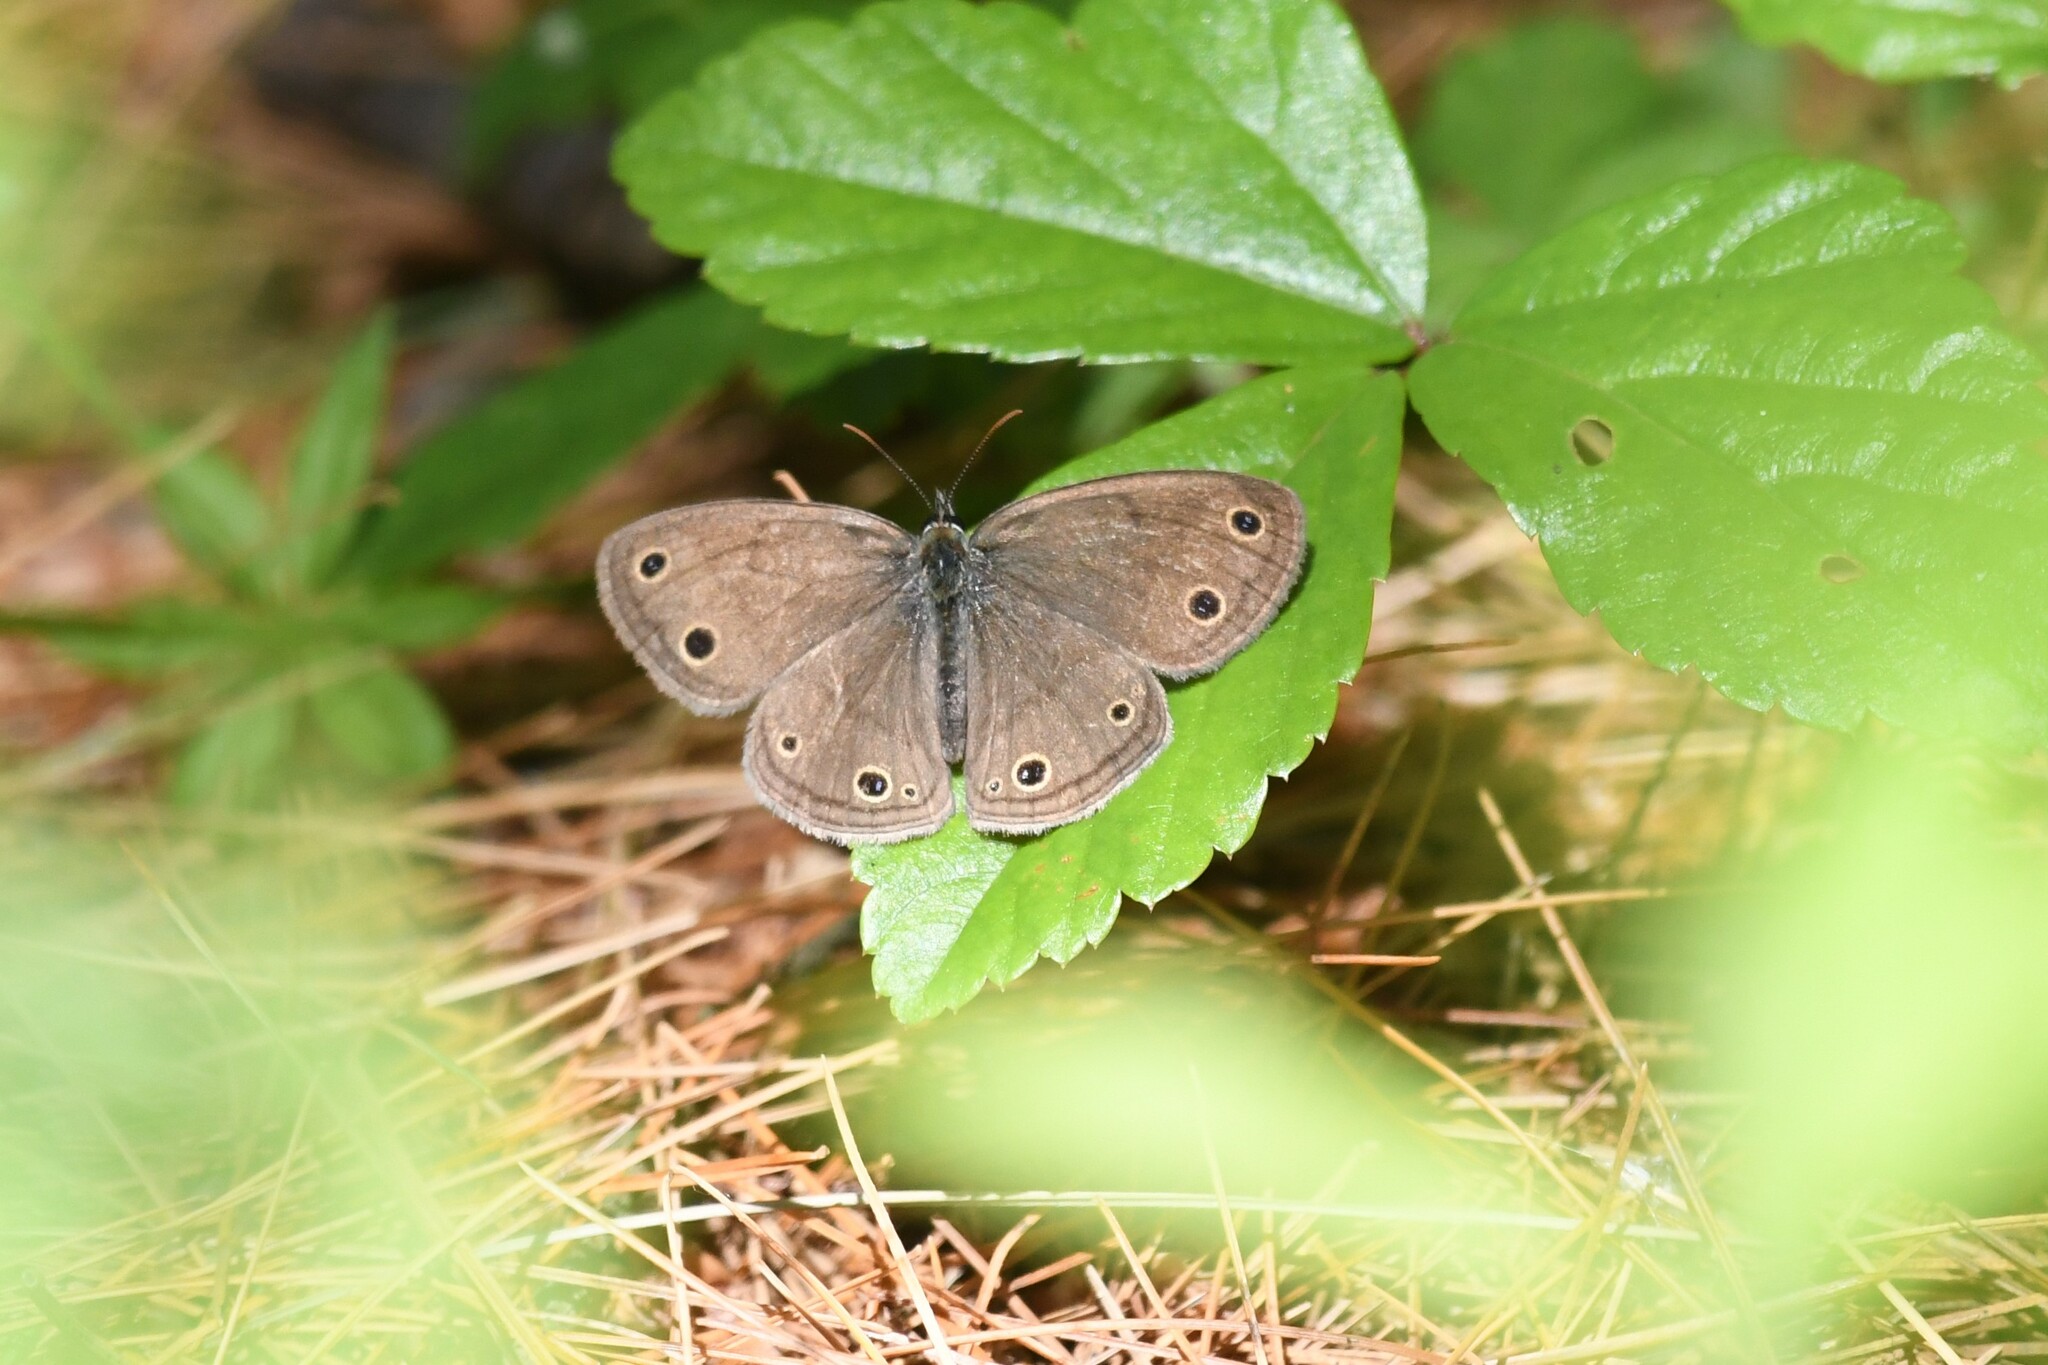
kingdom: Animalia
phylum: Arthropoda
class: Insecta
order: Lepidoptera
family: Nymphalidae
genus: Euptychia
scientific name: Euptychia cymela
